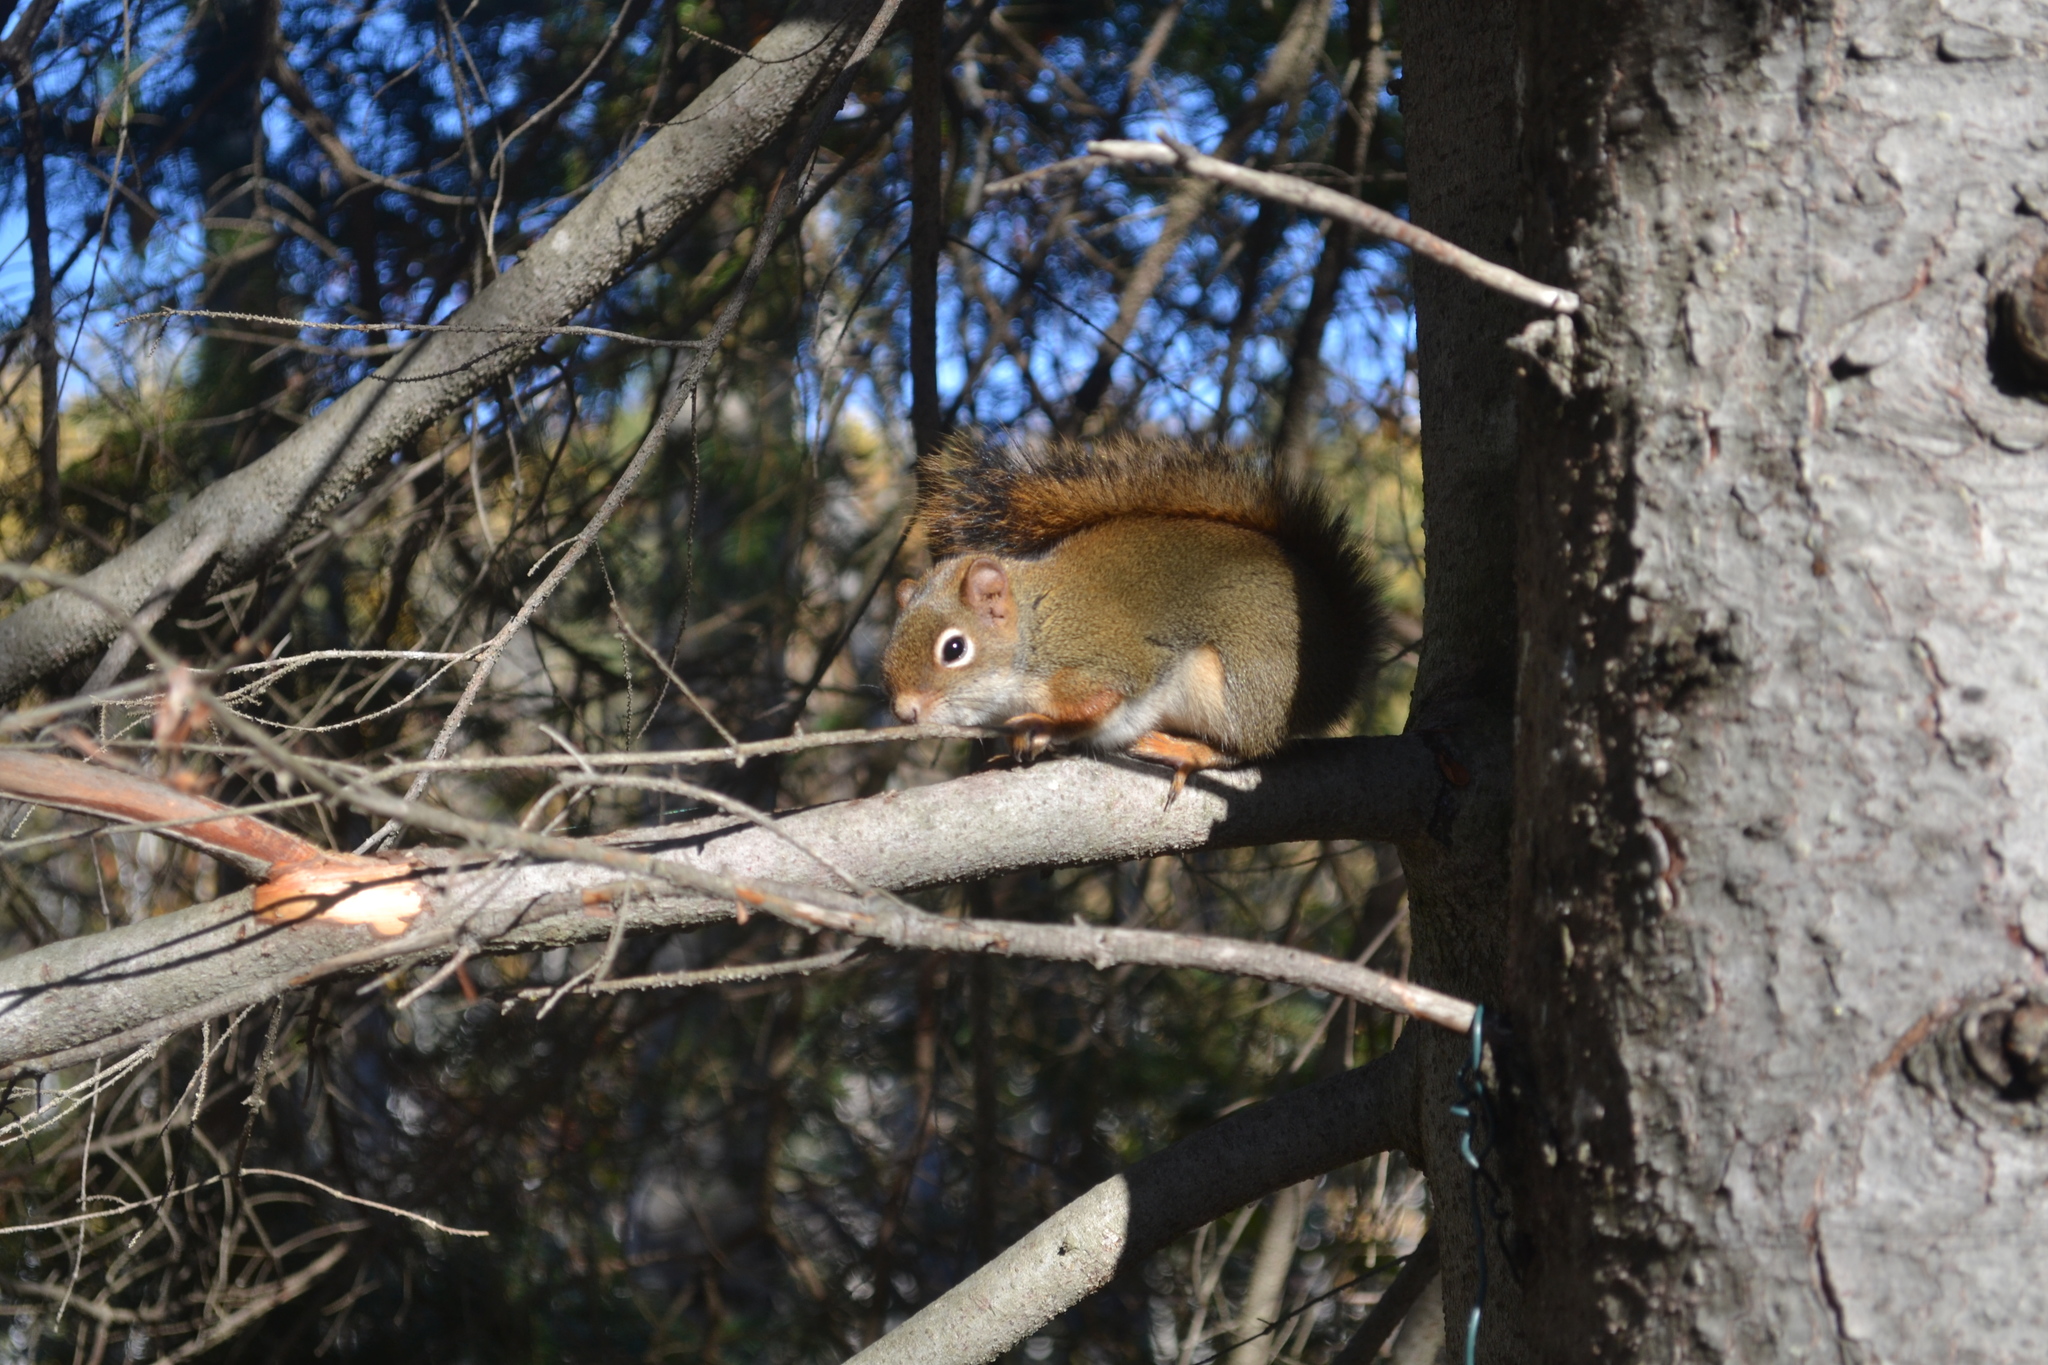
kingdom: Animalia
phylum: Chordata
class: Mammalia
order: Rodentia
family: Sciuridae
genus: Tamiasciurus
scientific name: Tamiasciurus hudsonicus
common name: Red squirrel
